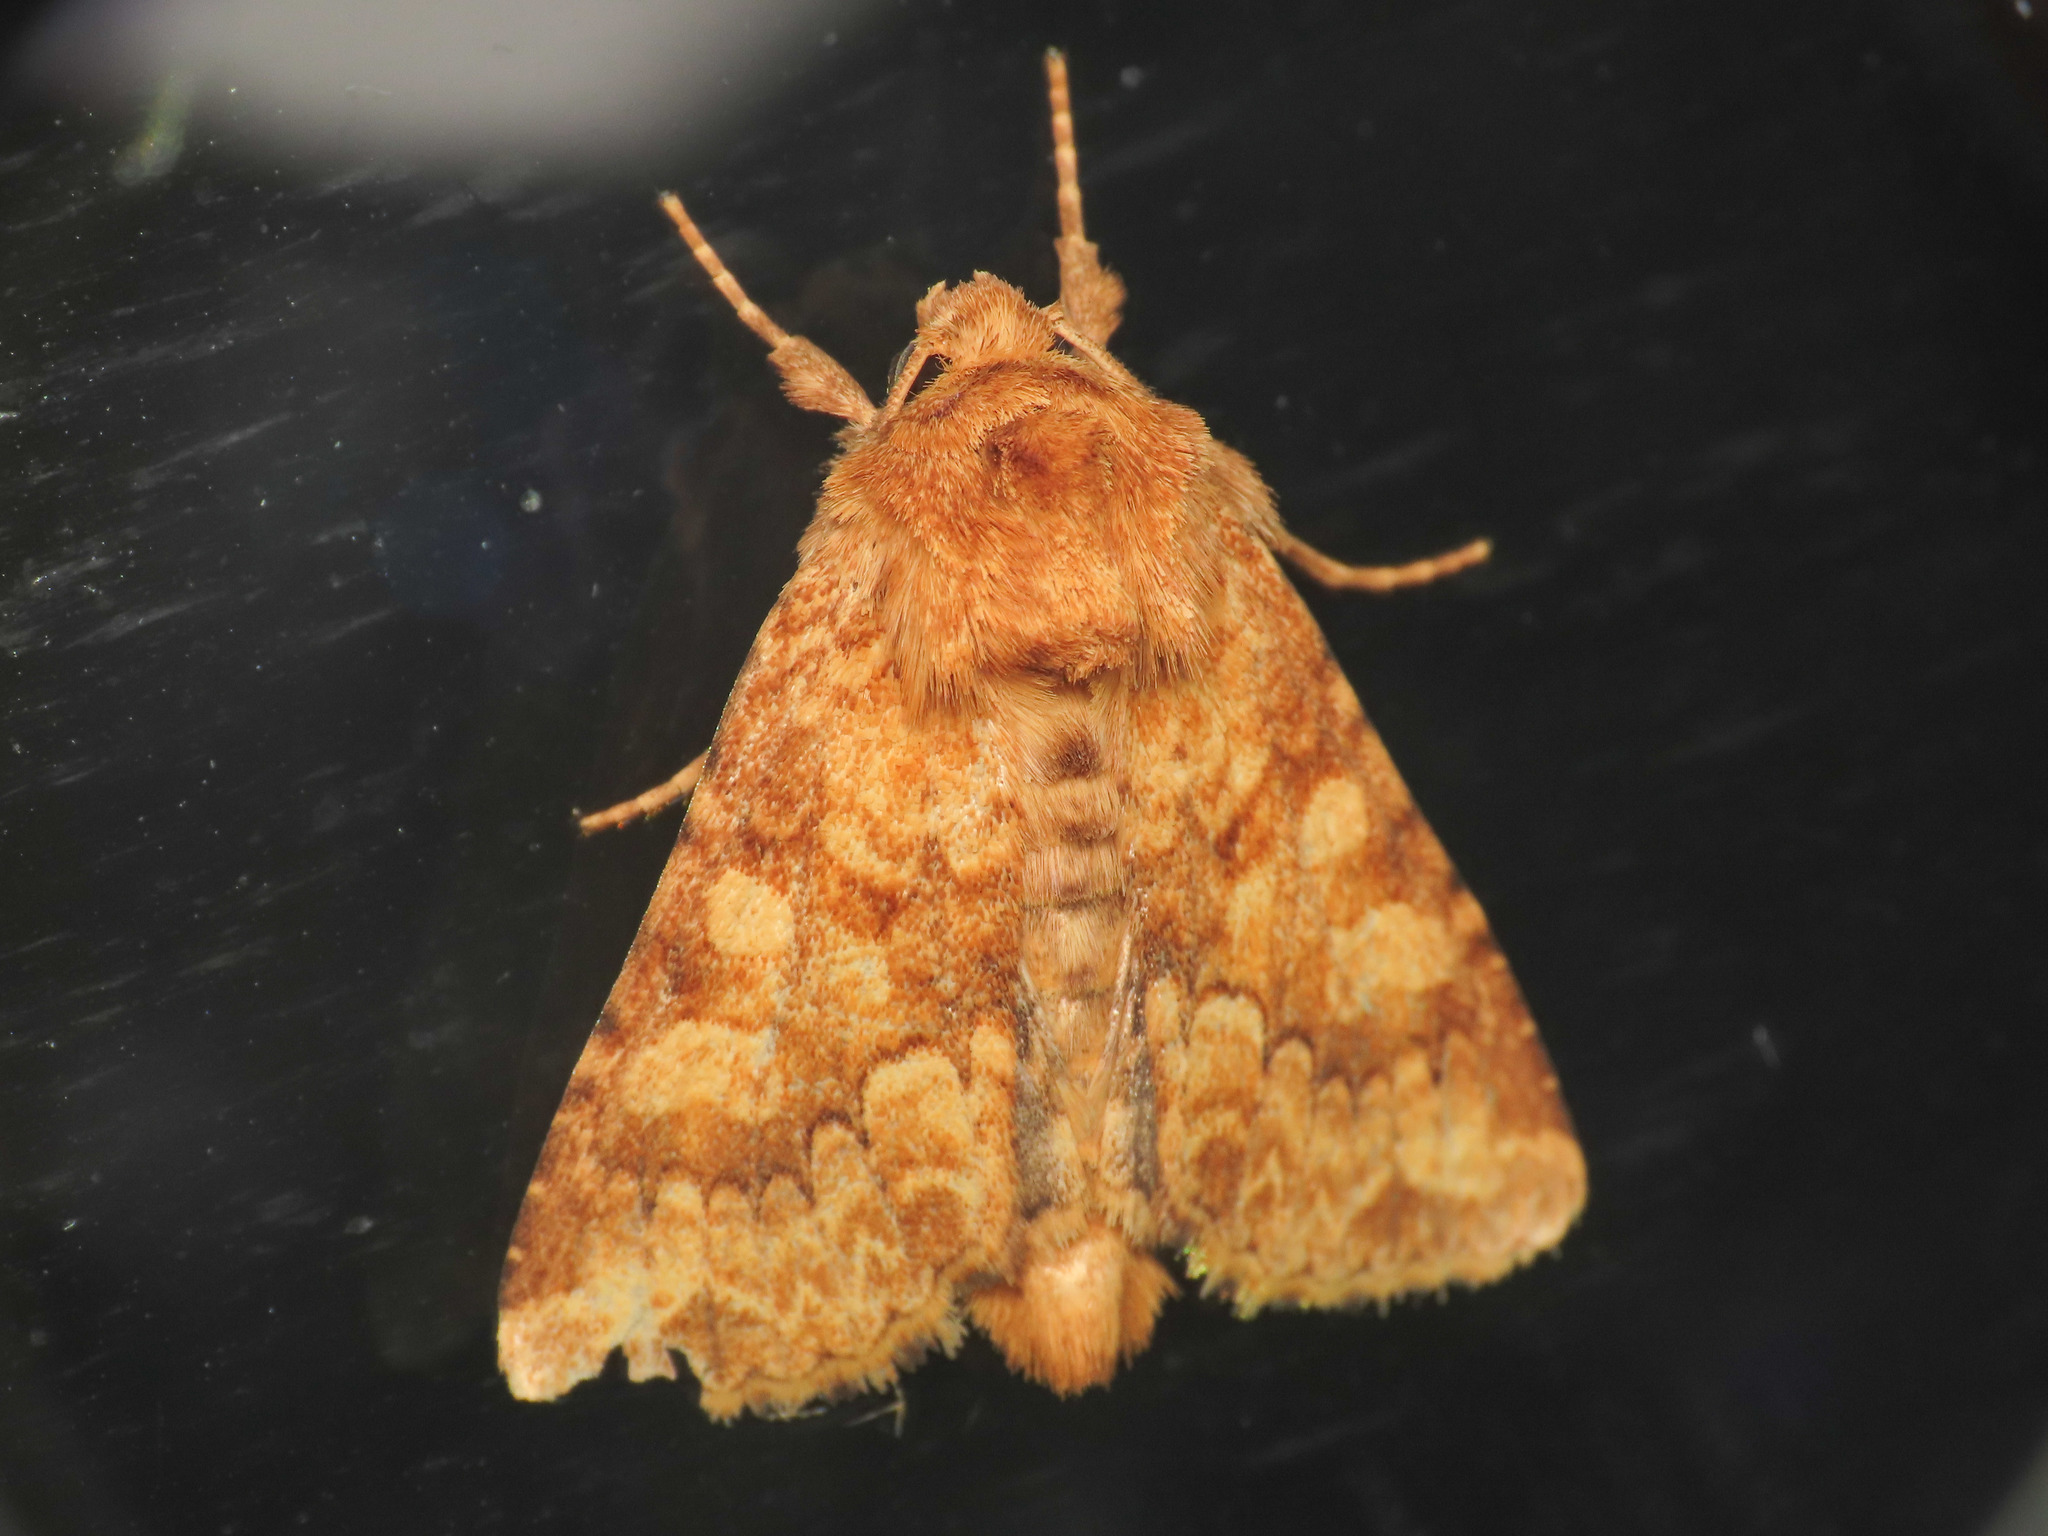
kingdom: Animalia
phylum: Arthropoda
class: Insecta
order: Lepidoptera
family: Noctuidae
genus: Conisania
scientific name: Conisania luteago
